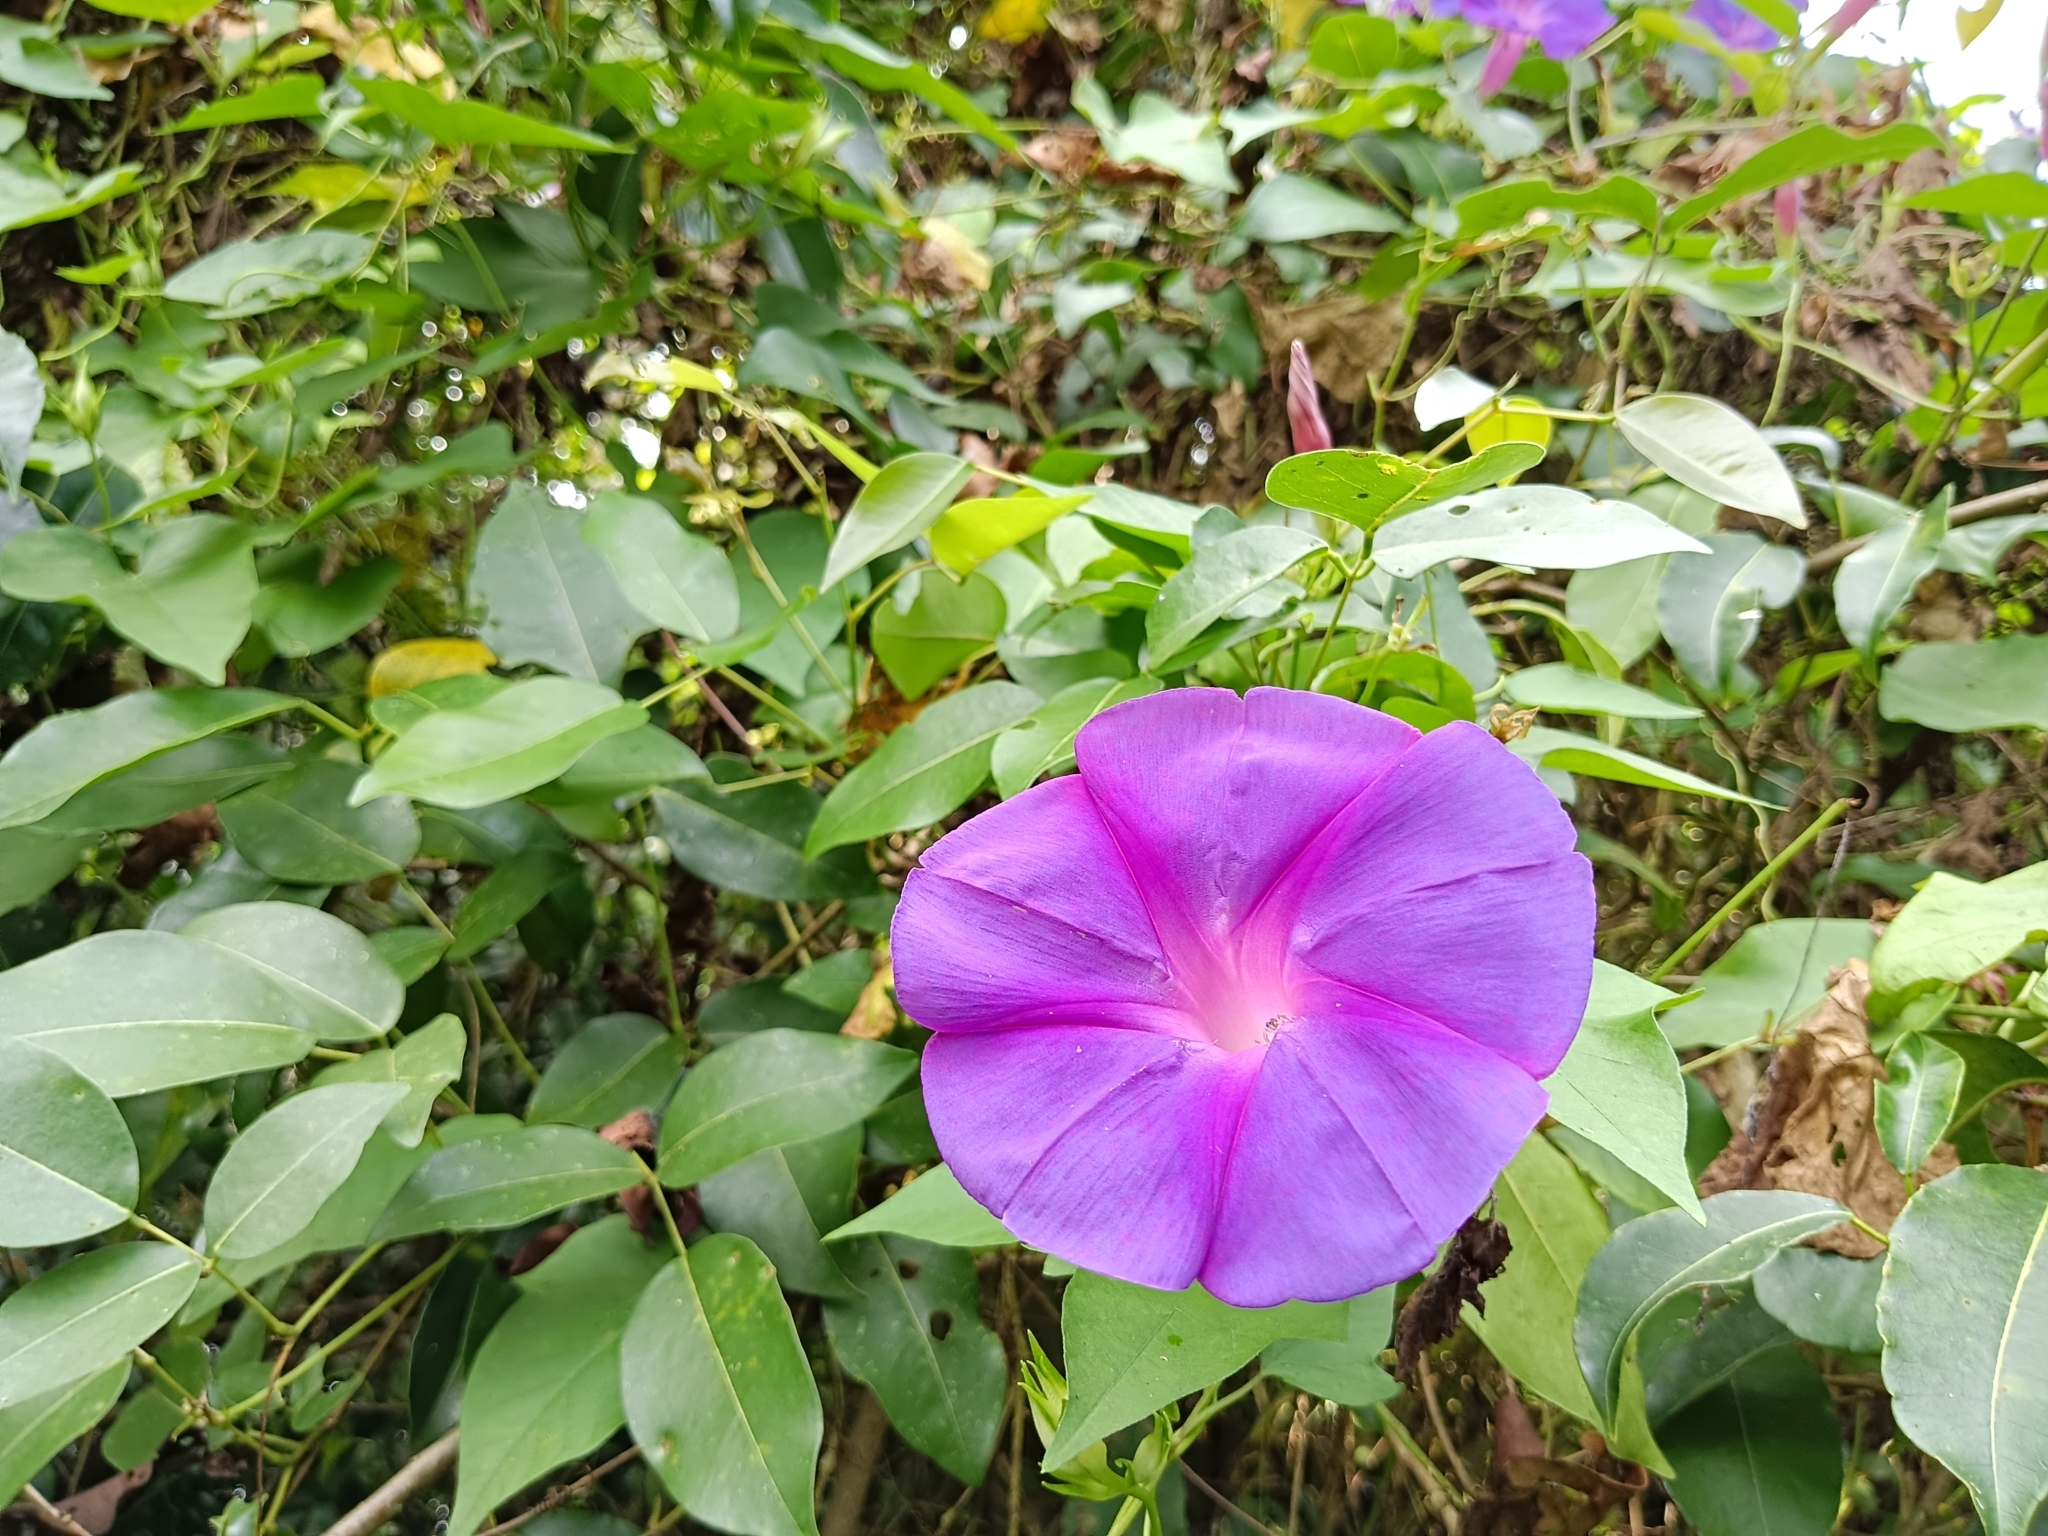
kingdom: Plantae
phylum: Tracheophyta
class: Magnoliopsida
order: Solanales
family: Convolvulaceae
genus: Ipomoea
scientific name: Ipomoea indica
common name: Blue dawnflower
